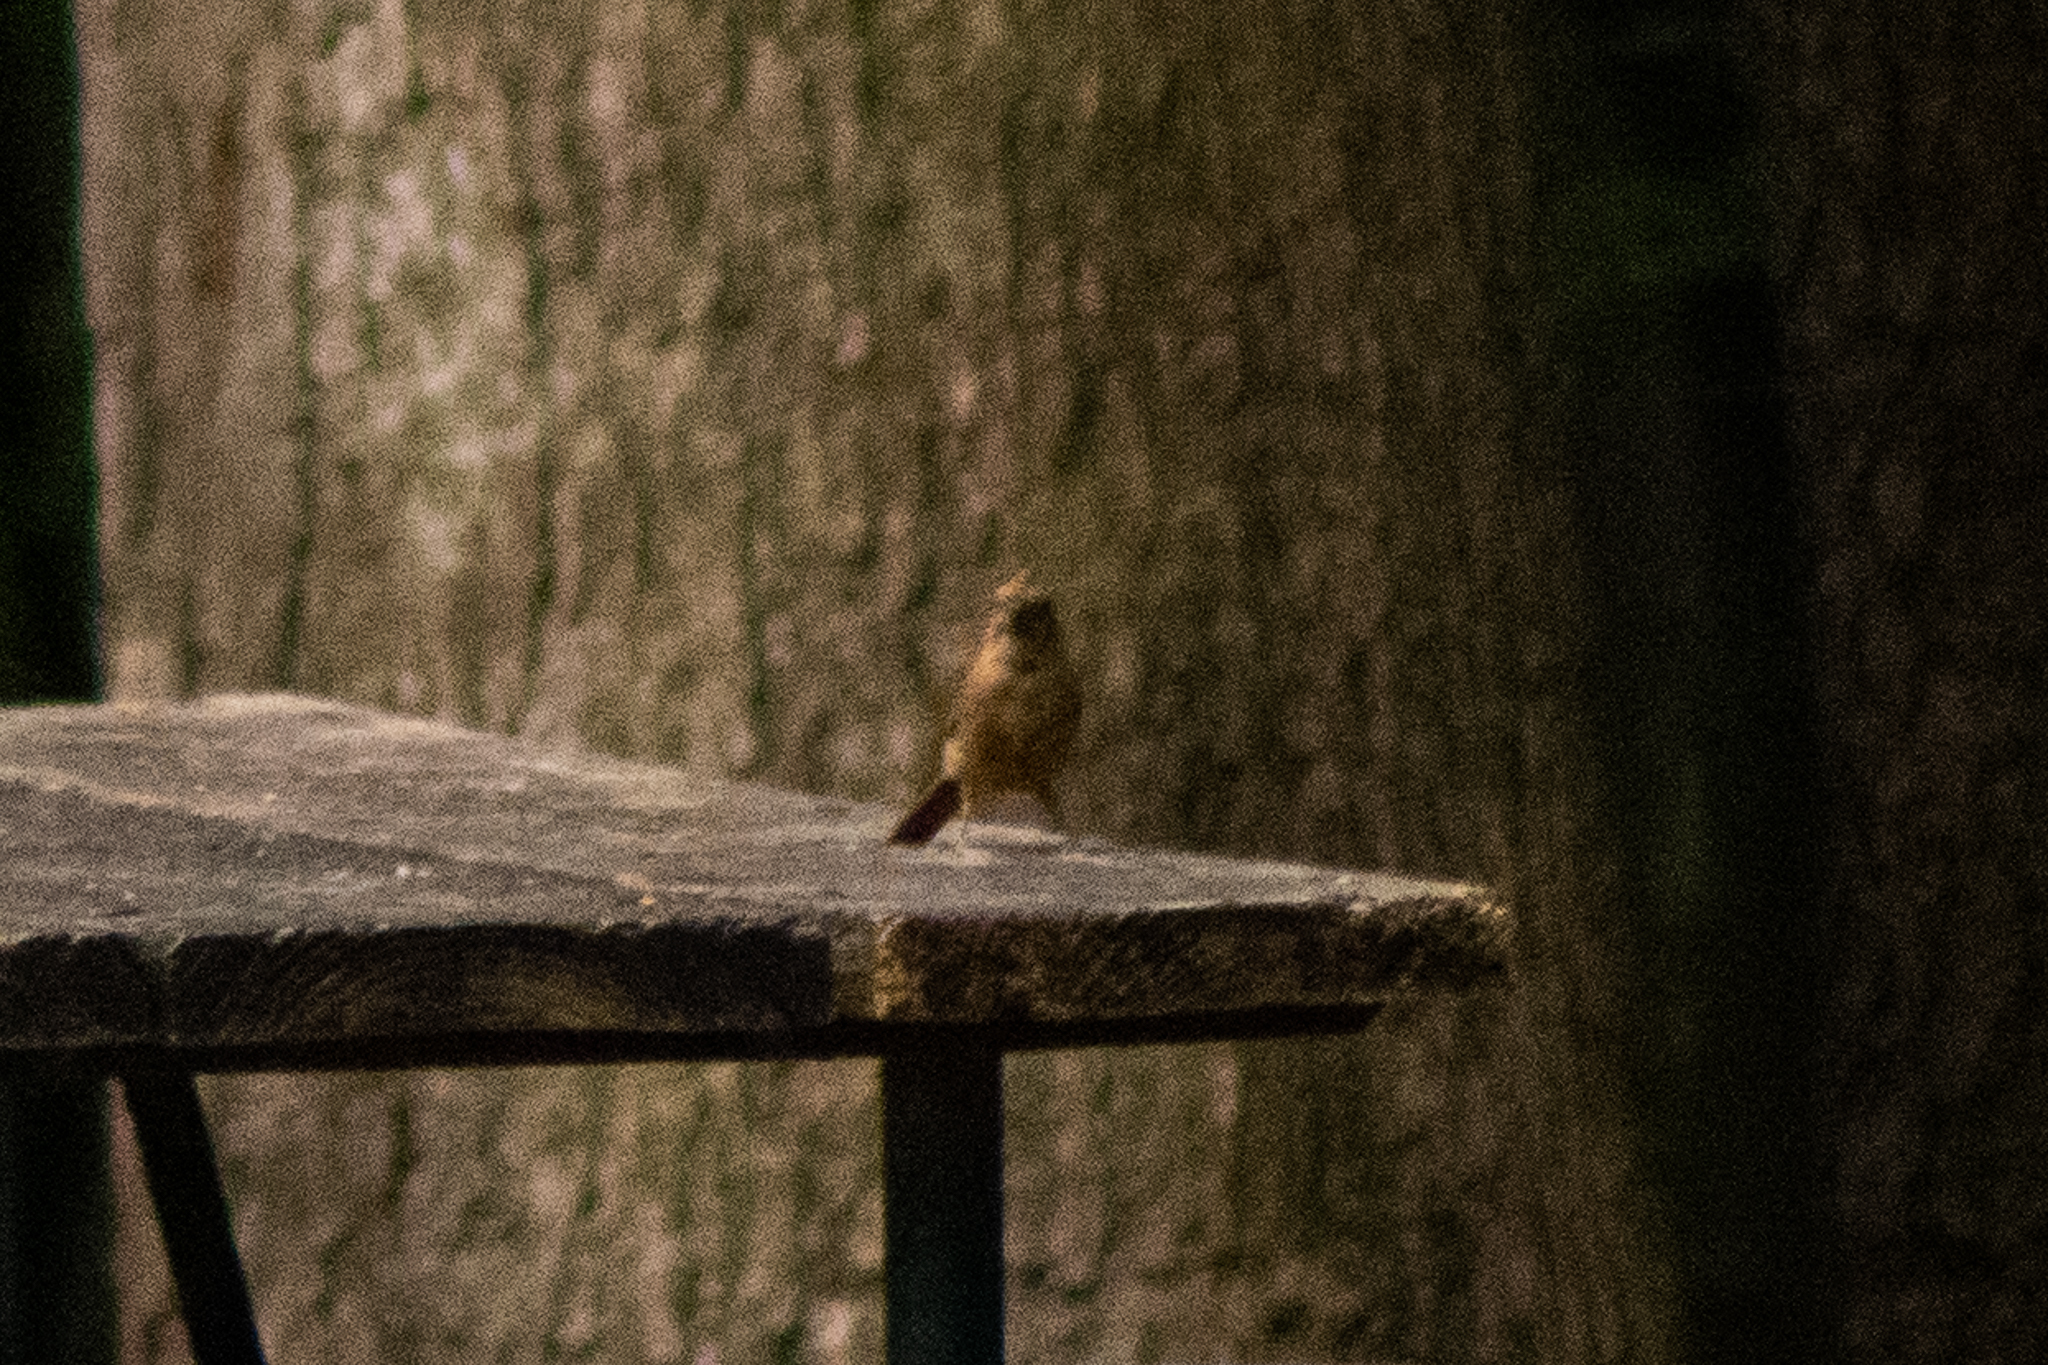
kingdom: Animalia
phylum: Chordata
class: Aves
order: Passeriformes
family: Cardinalidae
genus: Cardinalis
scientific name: Cardinalis cardinalis
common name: Northern cardinal
